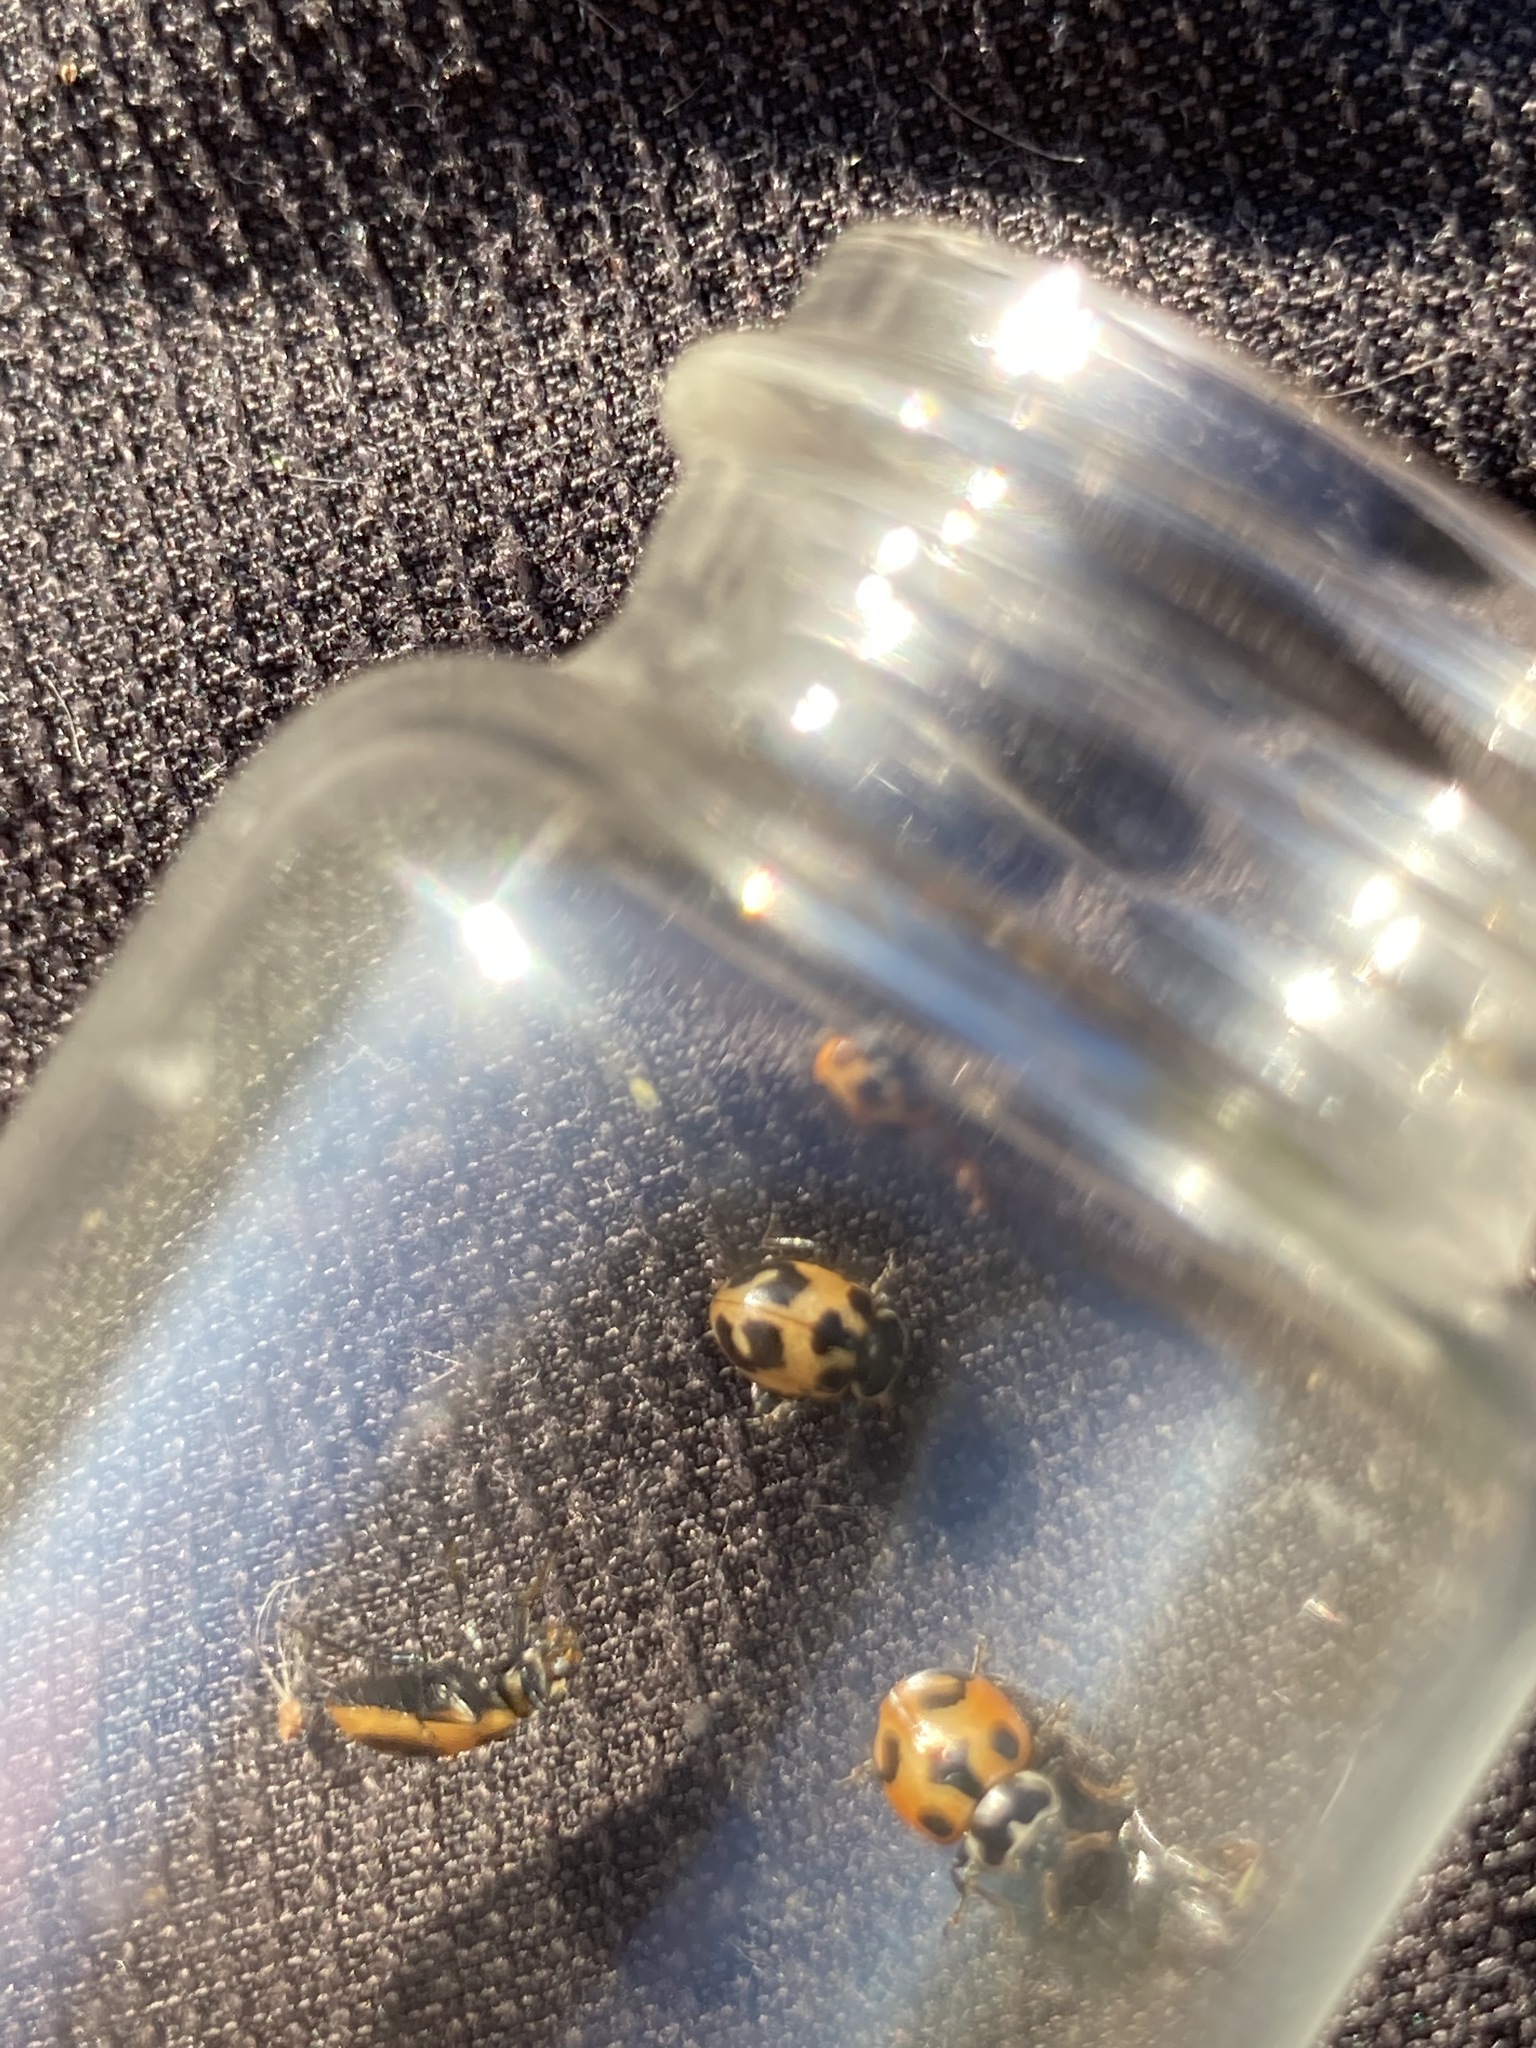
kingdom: Animalia
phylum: Arthropoda
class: Insecta
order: Coleoptera
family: Coccinellidae
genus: Hippodamia
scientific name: Hippodamia parenthesis
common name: Parenthesis lady beetle
